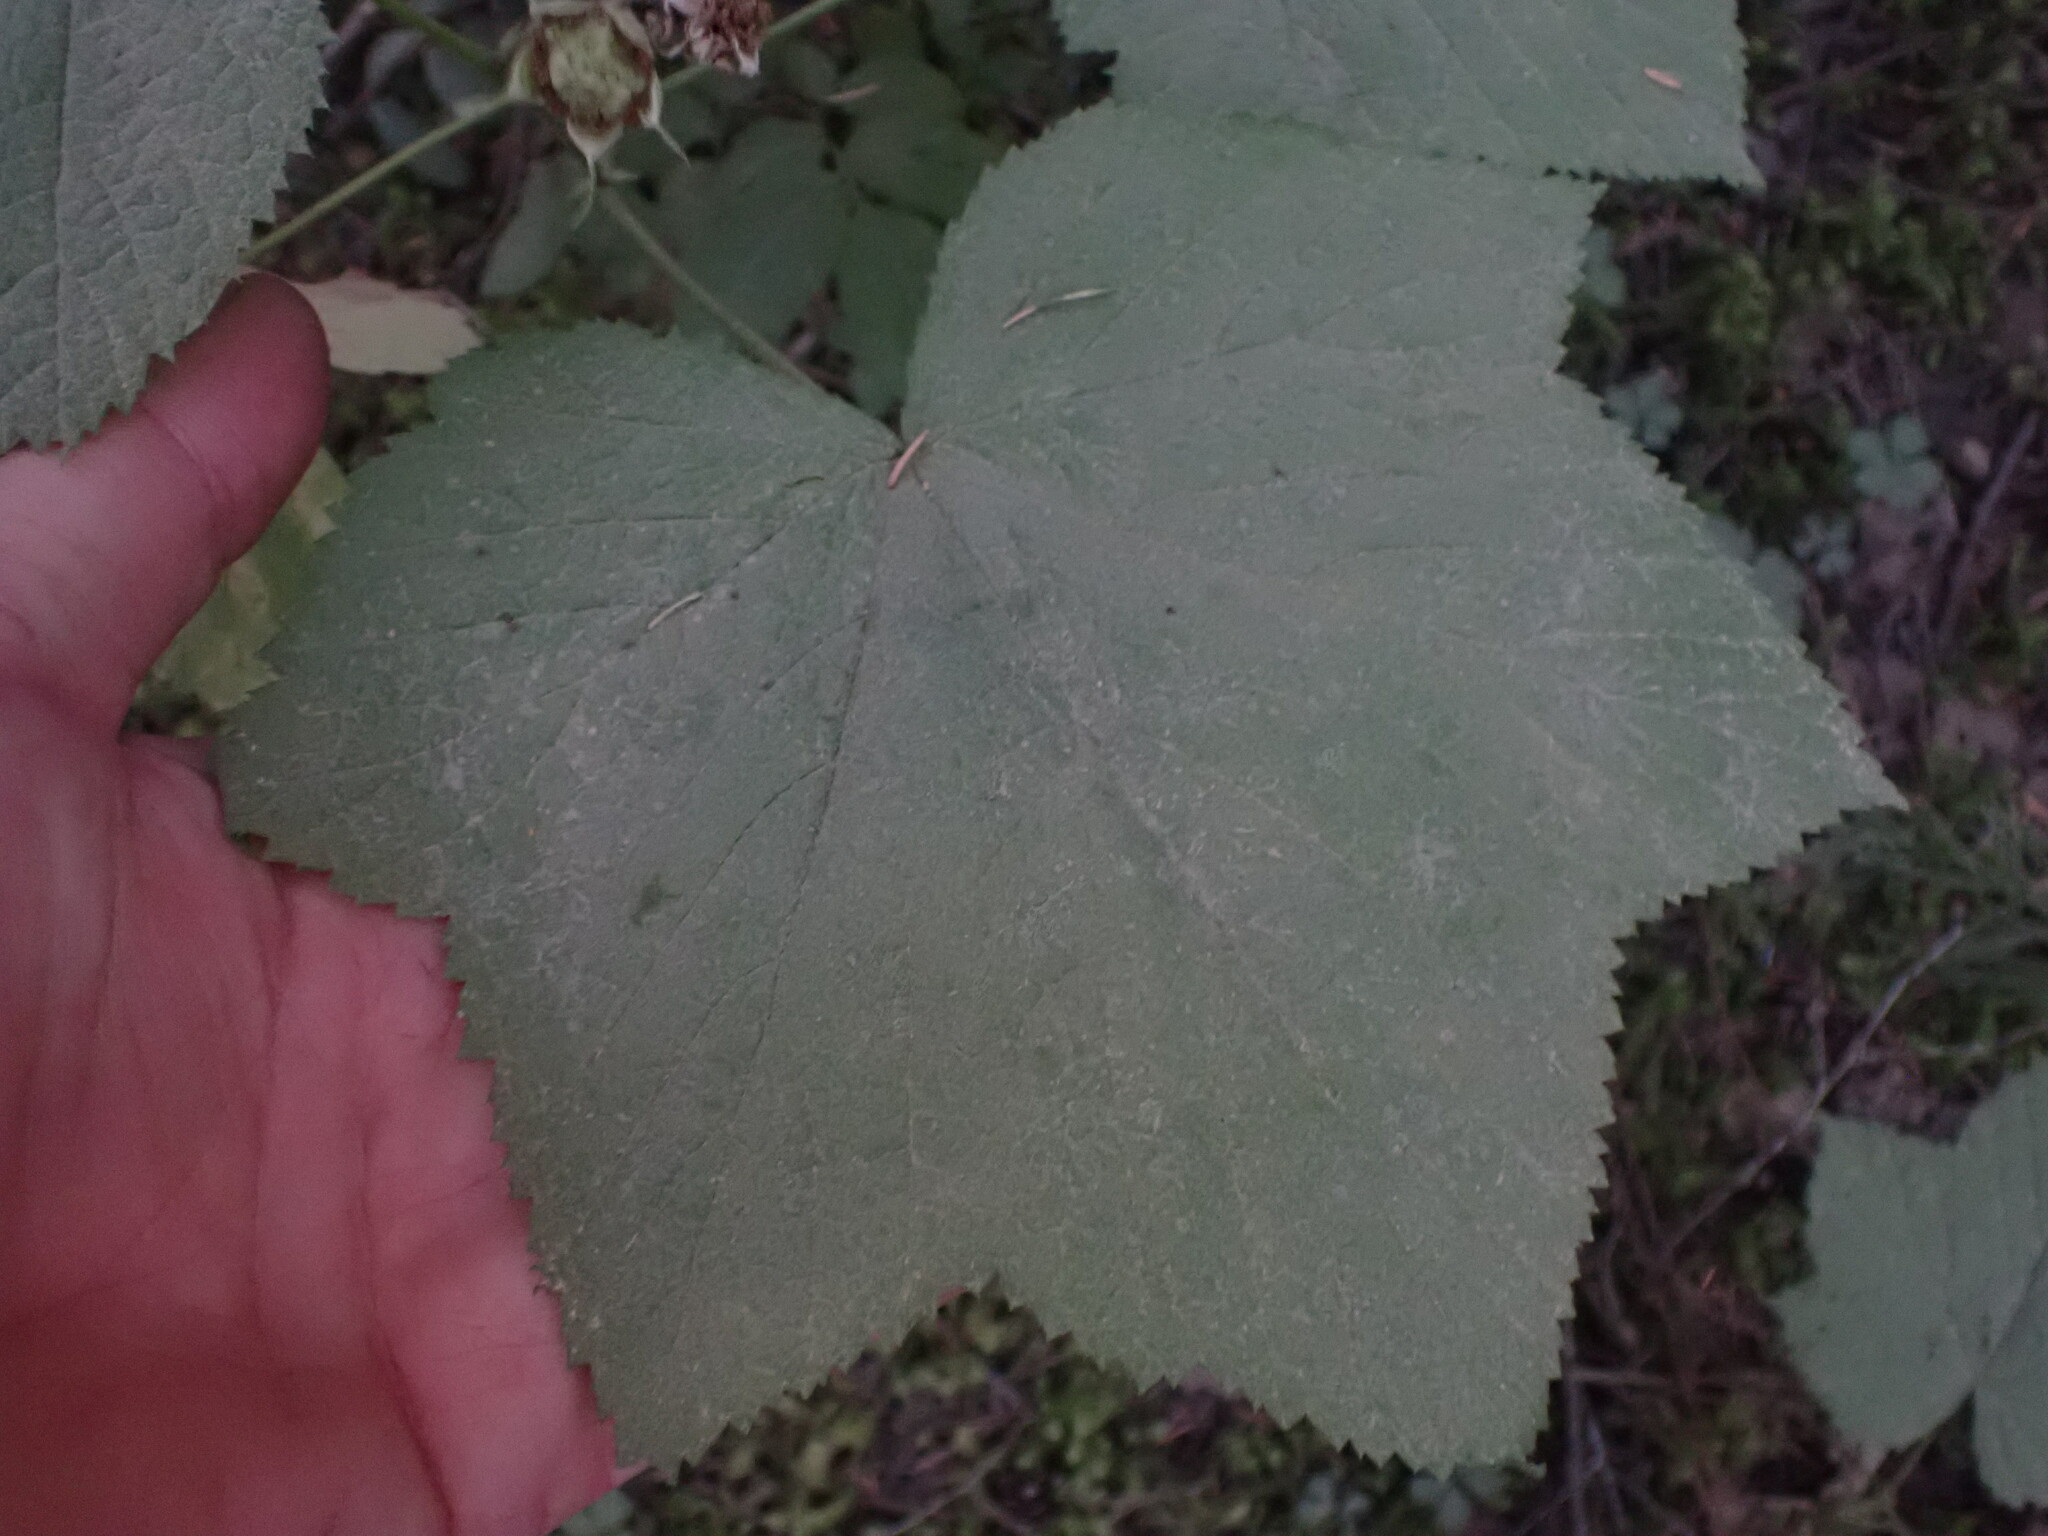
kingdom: Plantae
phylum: Tracheophyta
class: Magnoliopsida
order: Rosales
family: Rosaceae
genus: Rubus
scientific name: Rubus parviflorus
